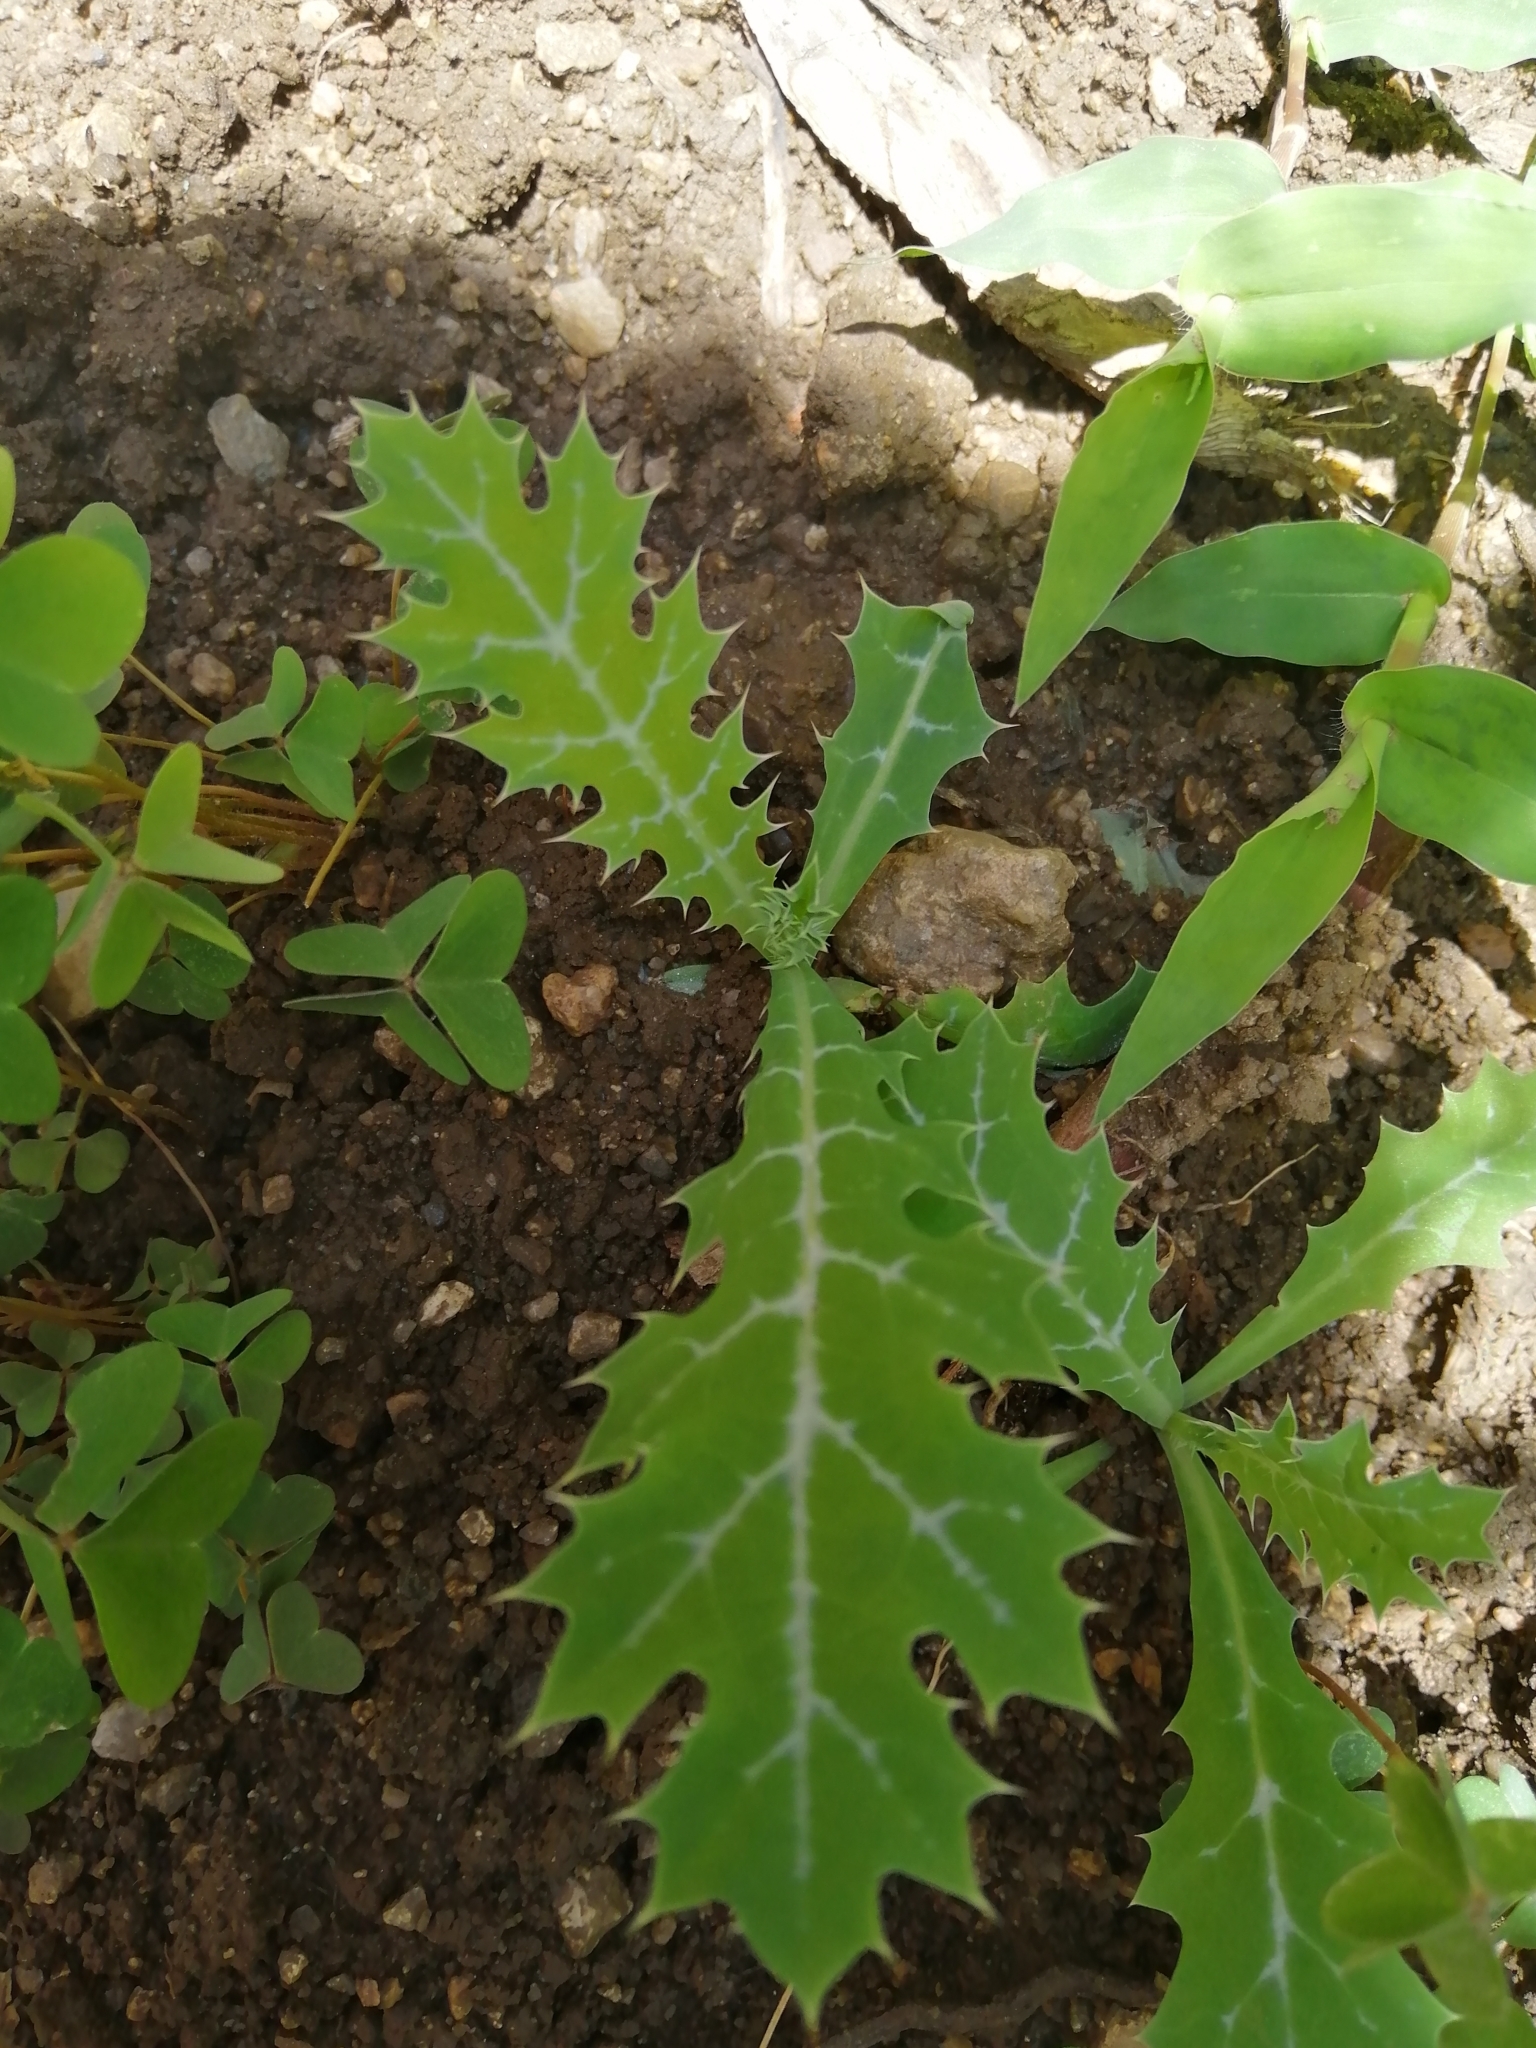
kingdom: Plantae
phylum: Tracheophyta
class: Magnoliopsida
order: Ranunculales
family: Papaveraceae
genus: Argemone
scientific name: Argemone mexicana
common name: Mexican poppy
